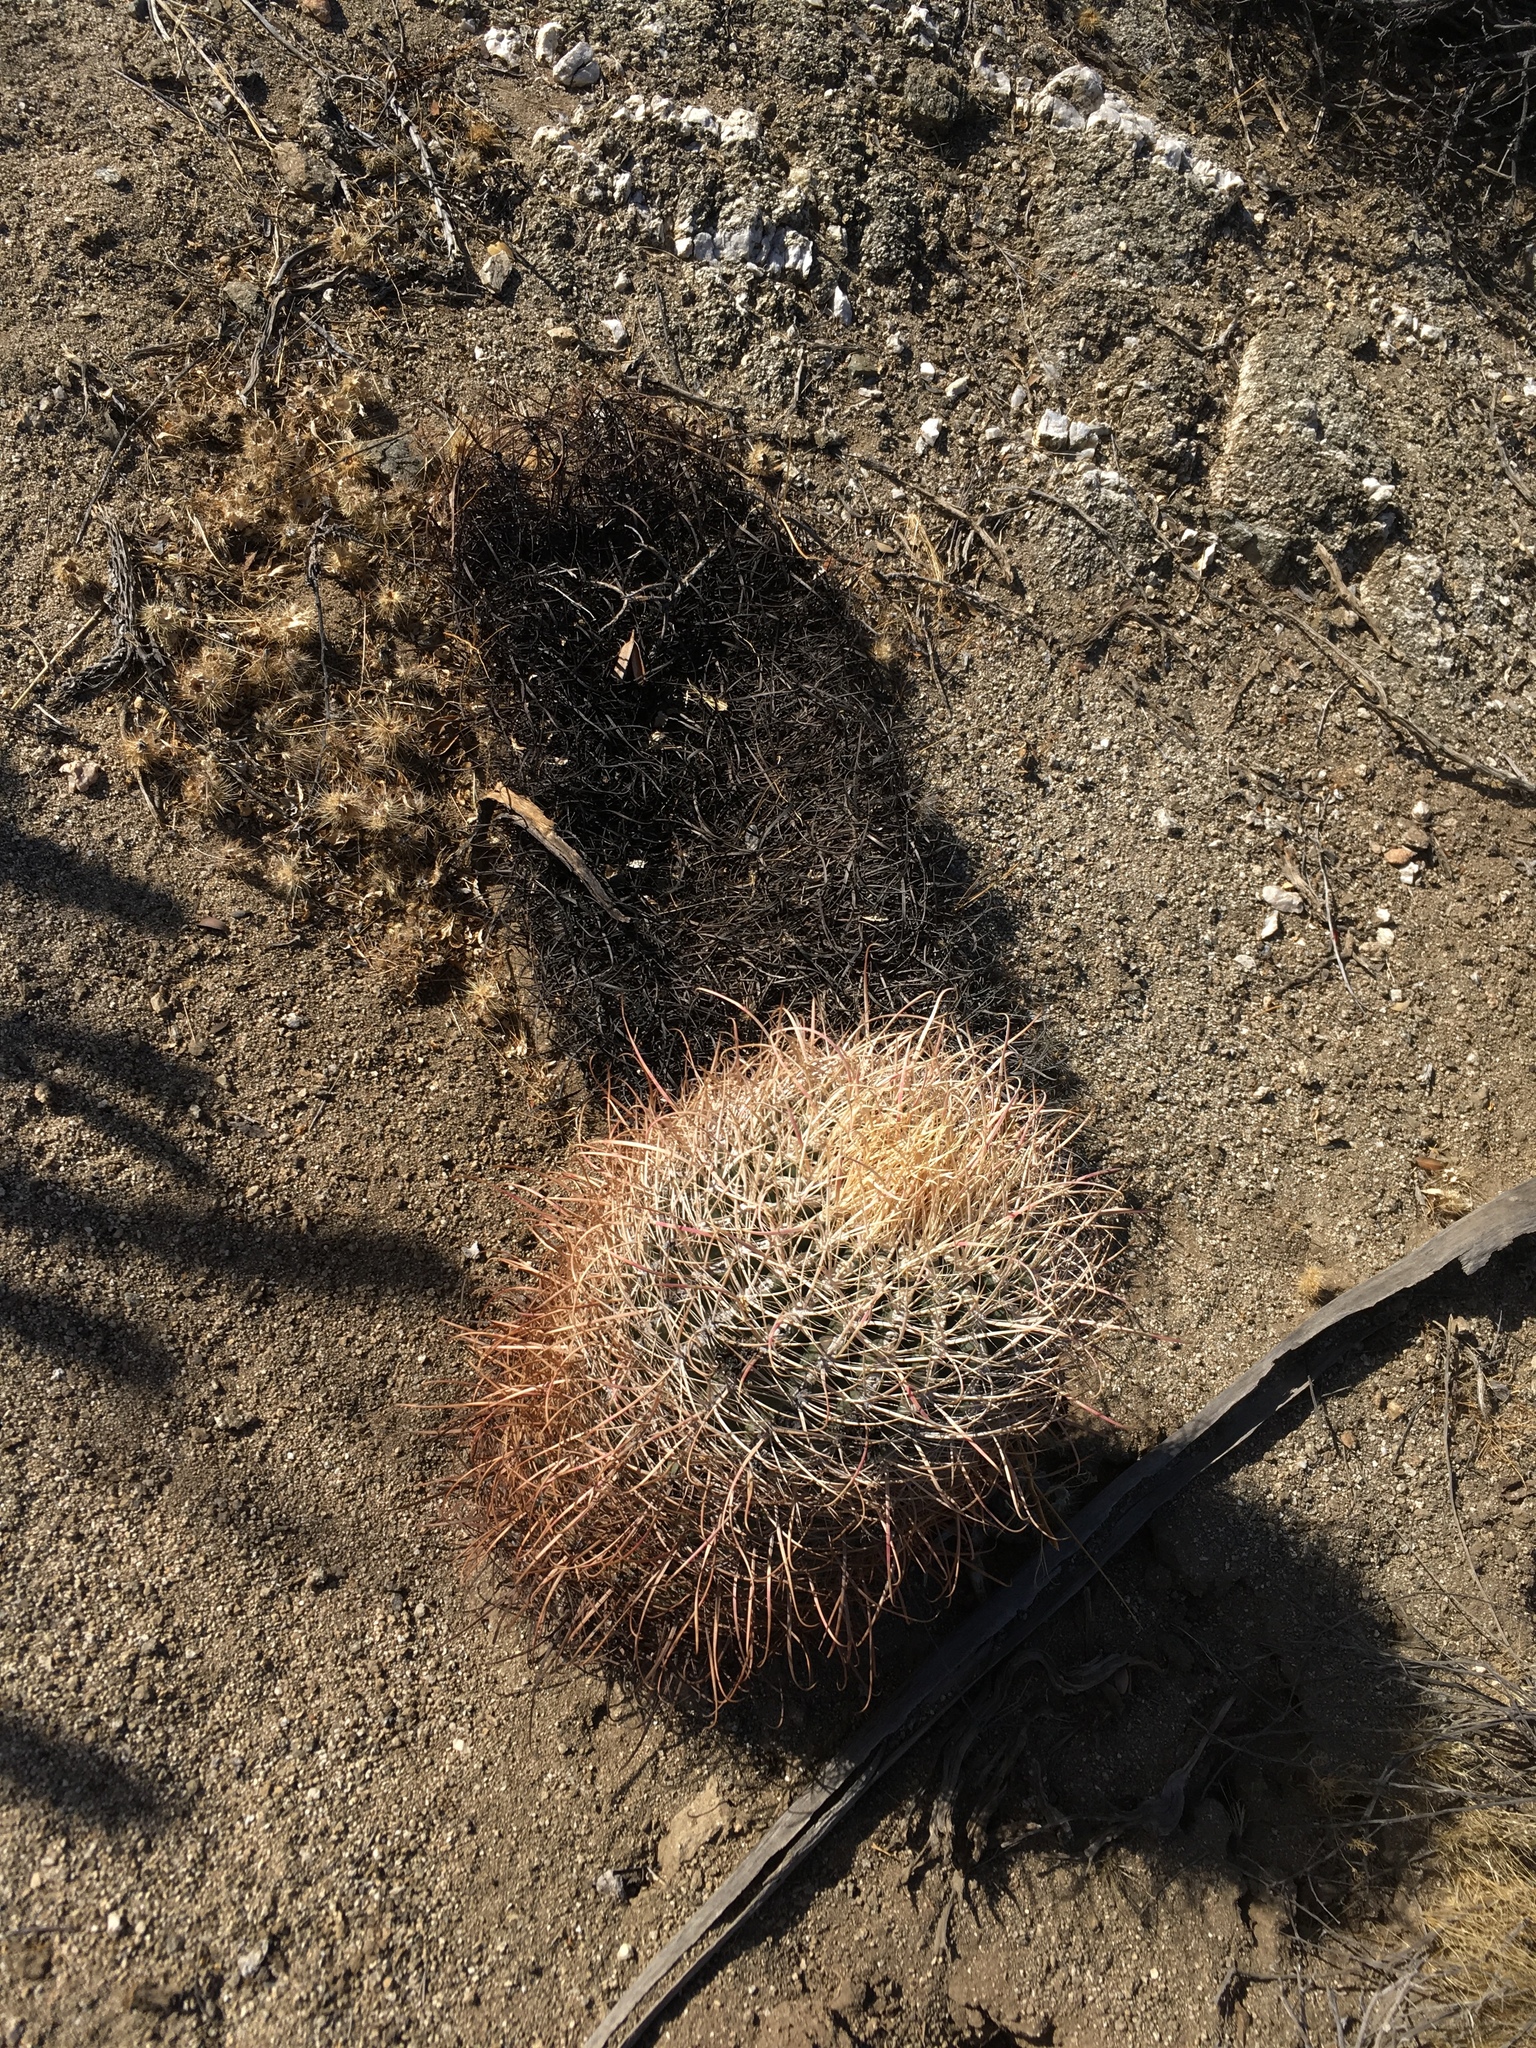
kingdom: Plantae
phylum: Tracheophyta
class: Magnoliopsida
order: Caryophyllales
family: Cactaceae
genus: Ferocactus
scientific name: Ferocactus cylindraceus
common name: California barrel cactus
